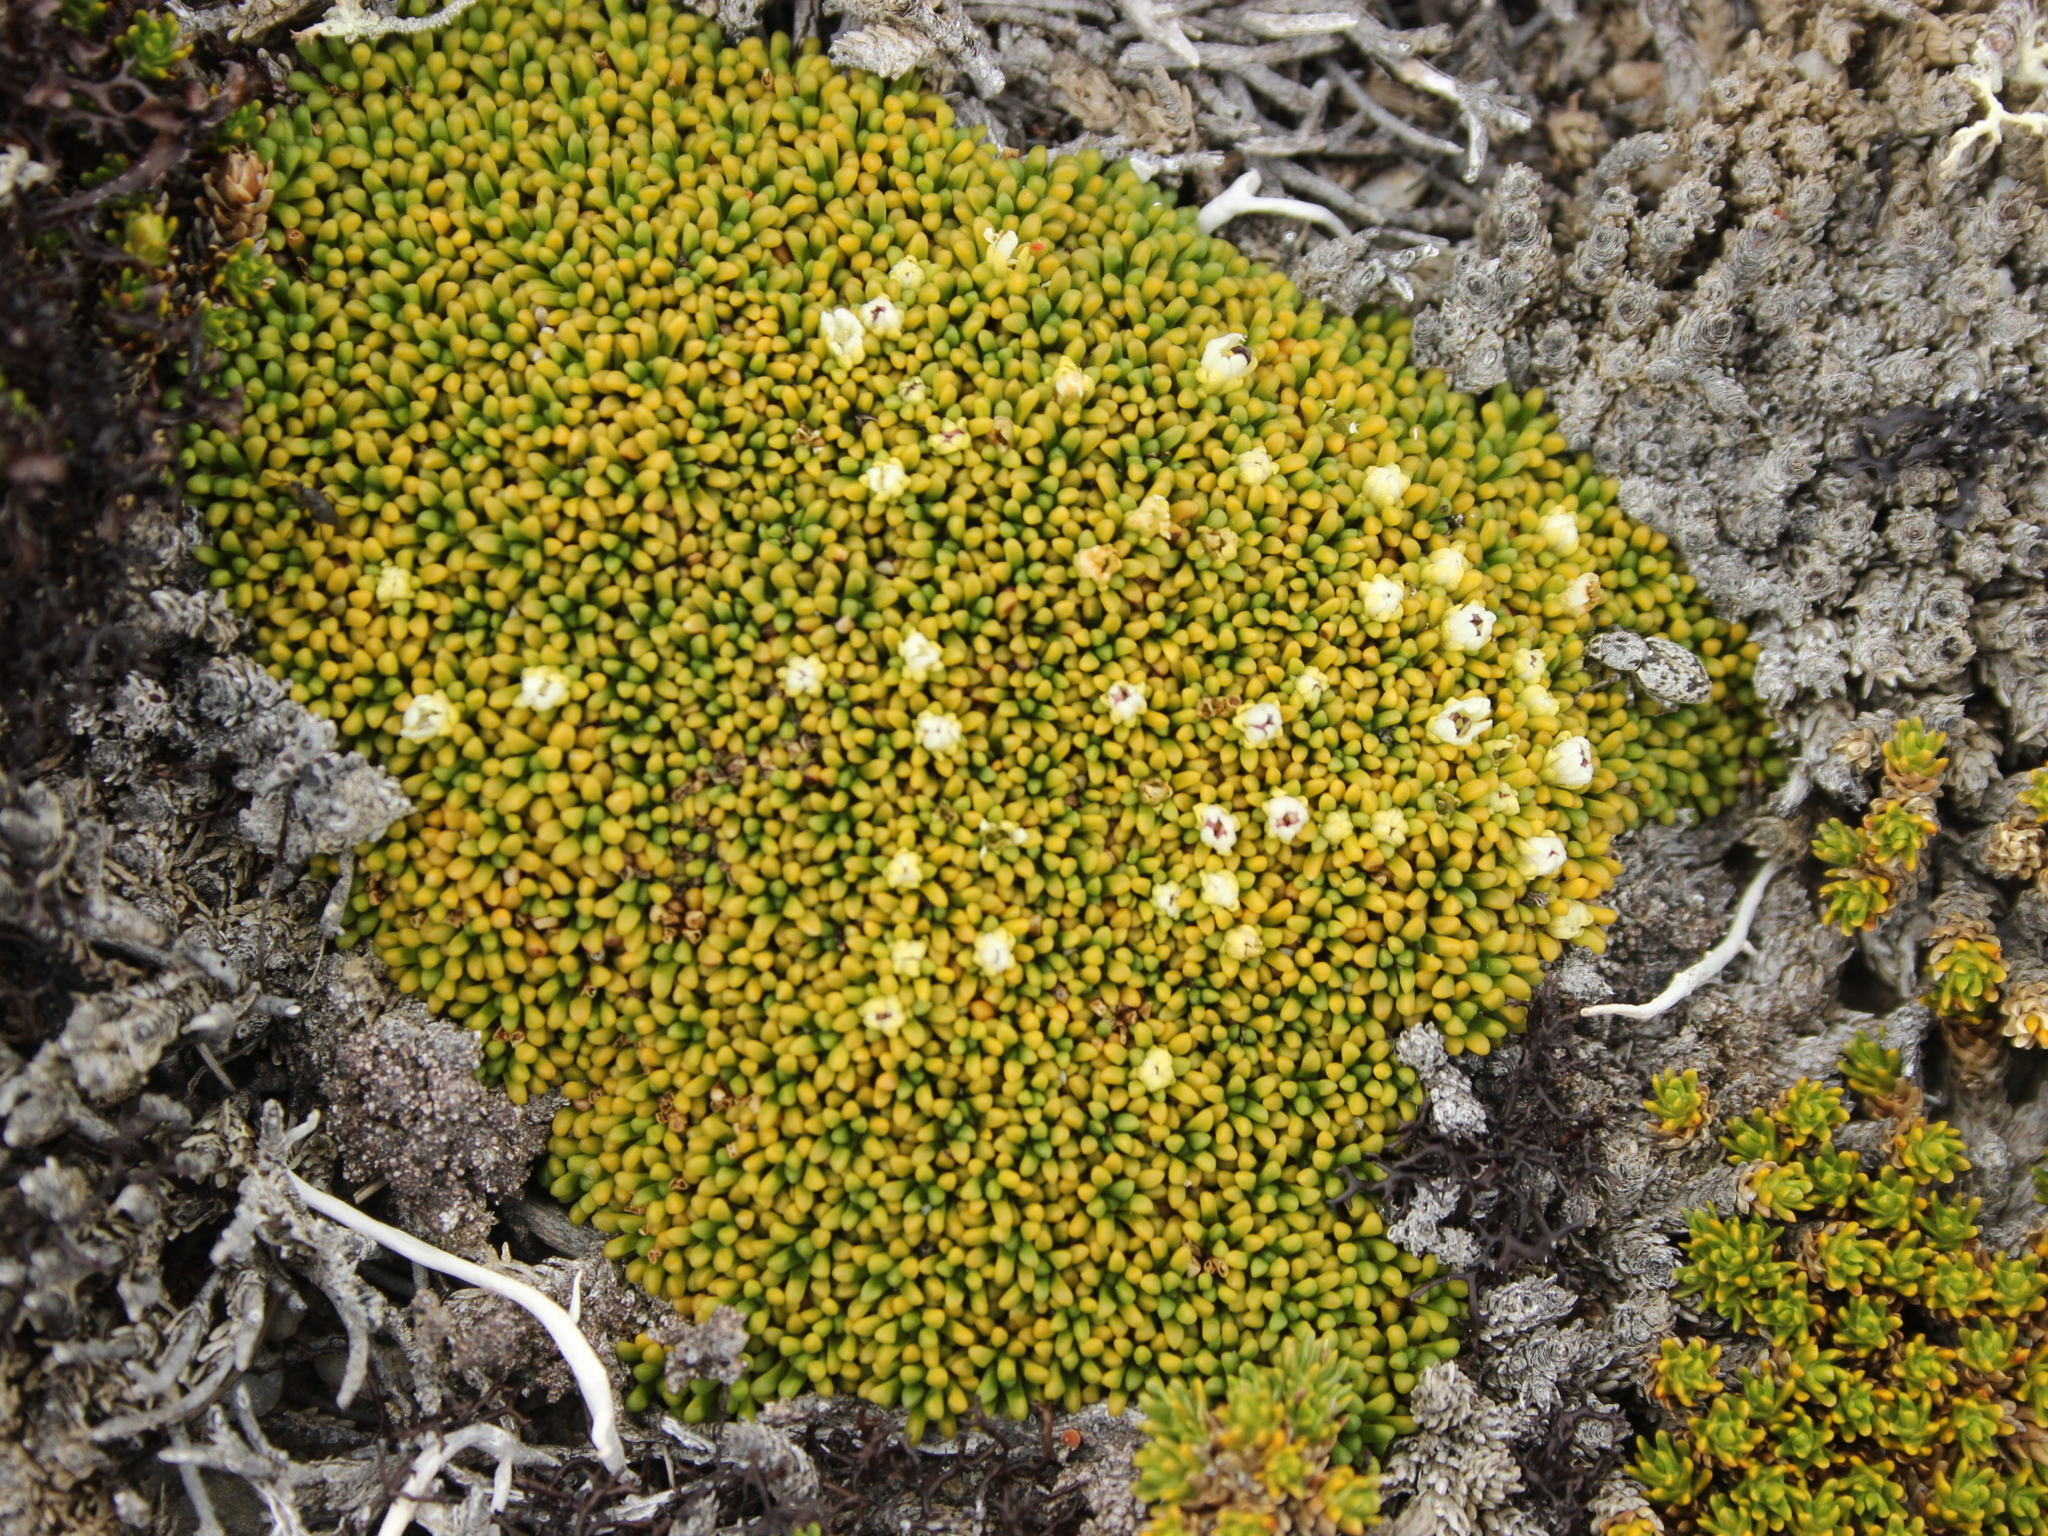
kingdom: Plantae
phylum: Tracheophyta
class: Magnoliopsida
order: Asterales
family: Stylidiaceae
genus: Phyllachne
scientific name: Phyllachne rubra
